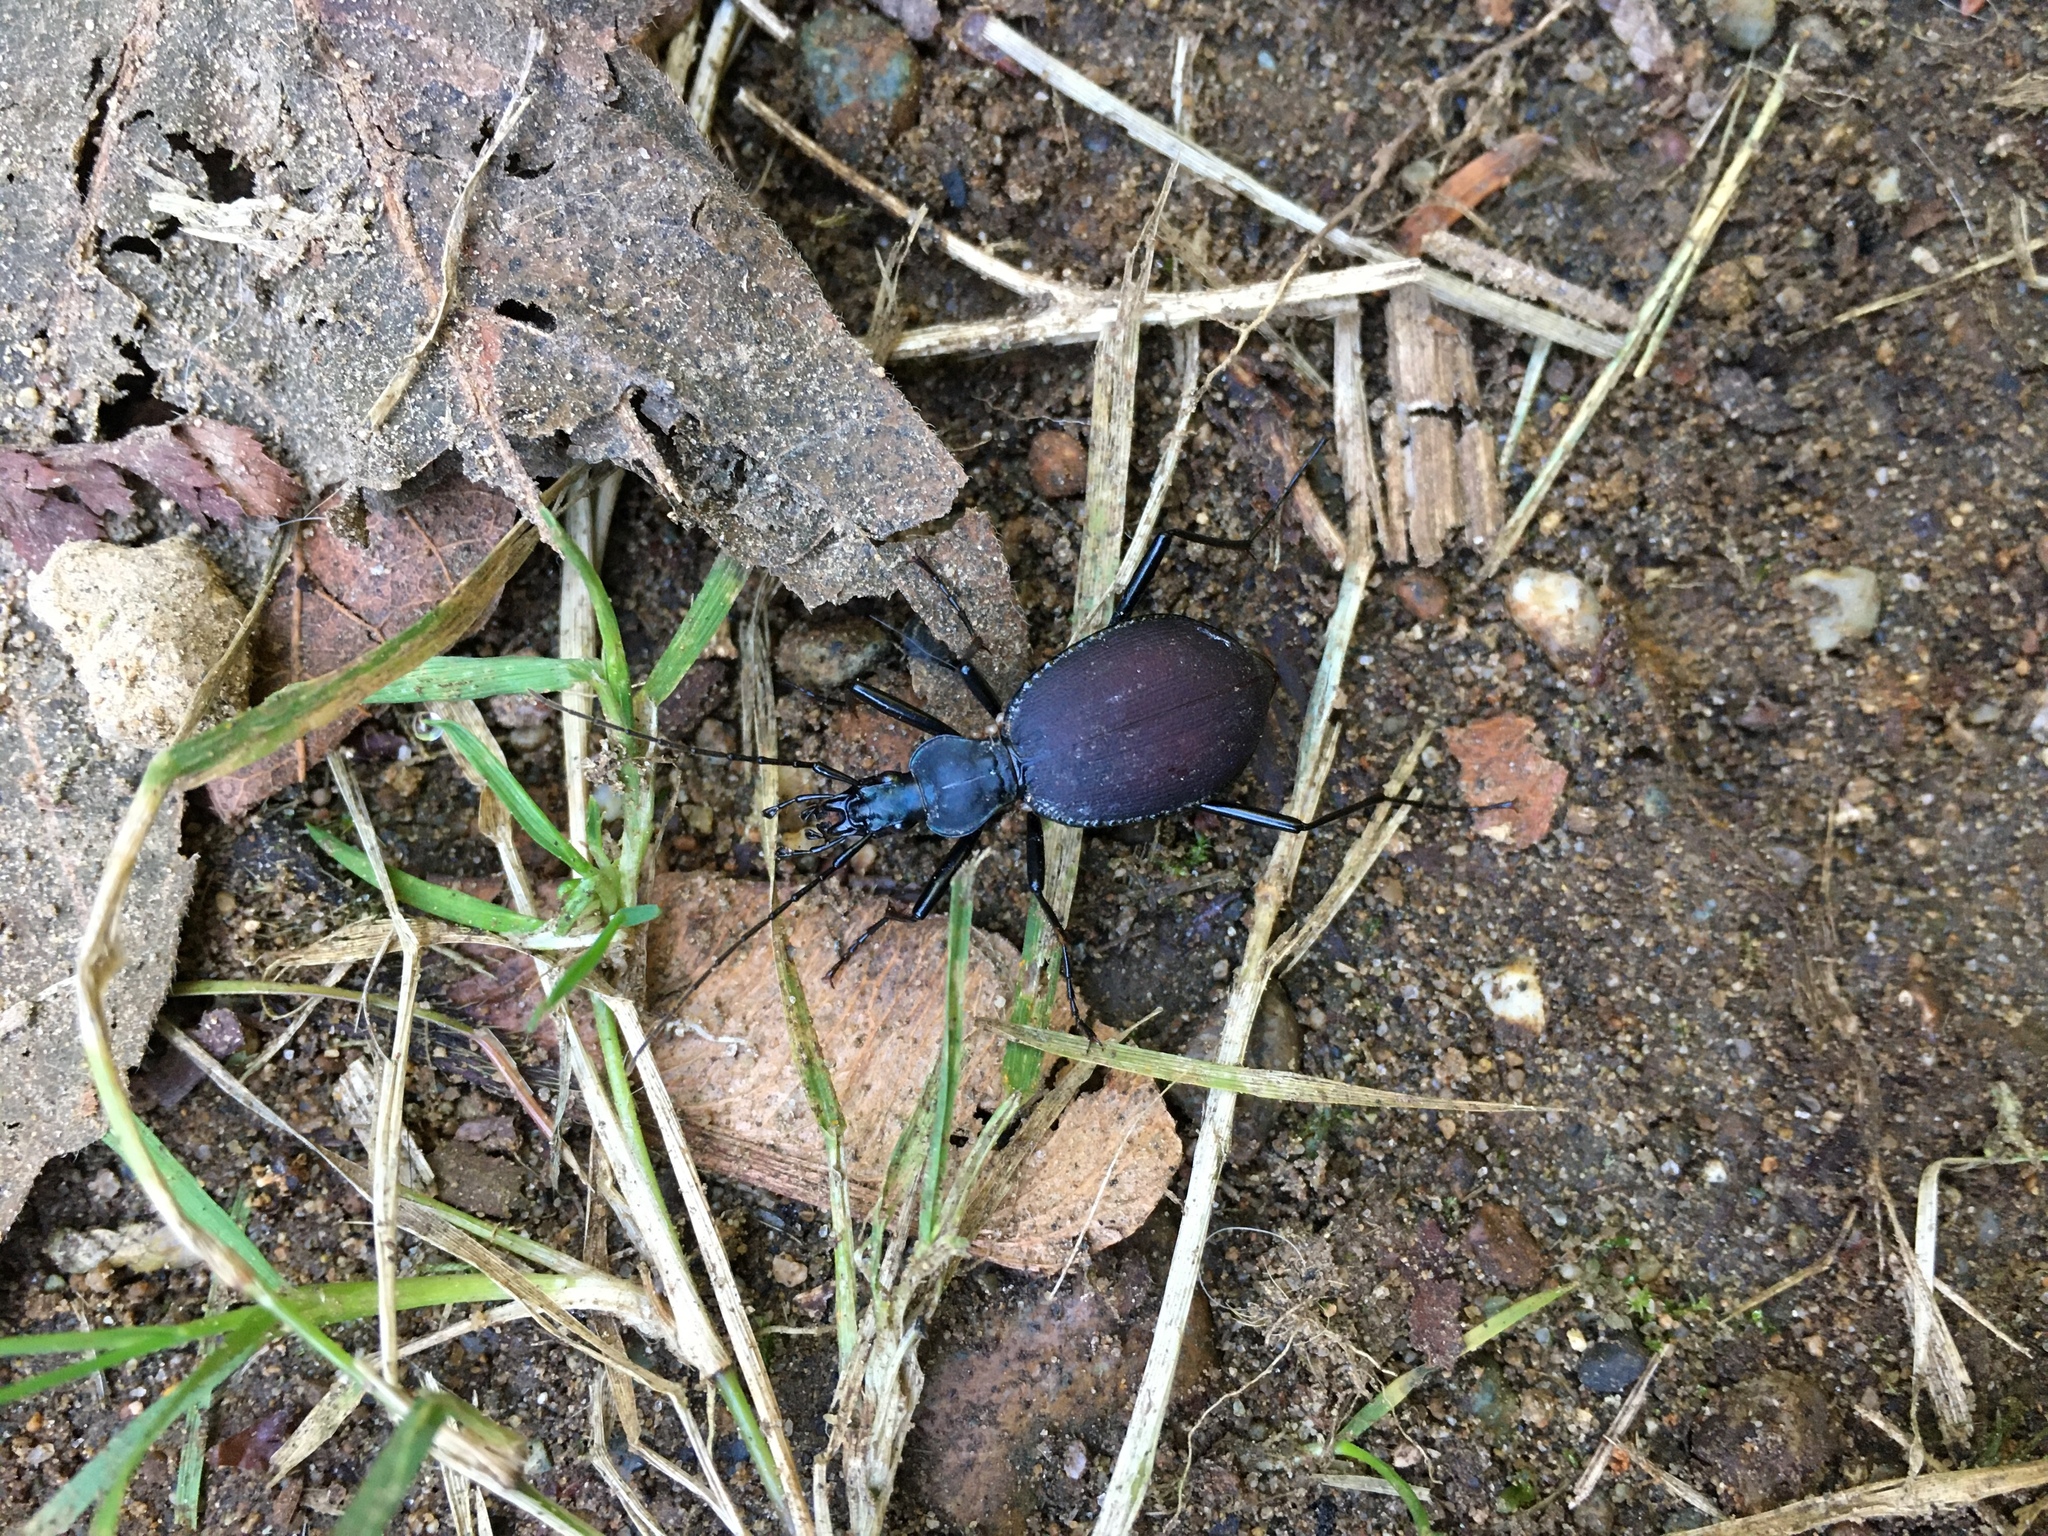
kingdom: Animalia
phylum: Arthropoda
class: Insecta
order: Coleoptera
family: Carabidae
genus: Scaphinotus
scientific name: Scaphinotus angusticollis
